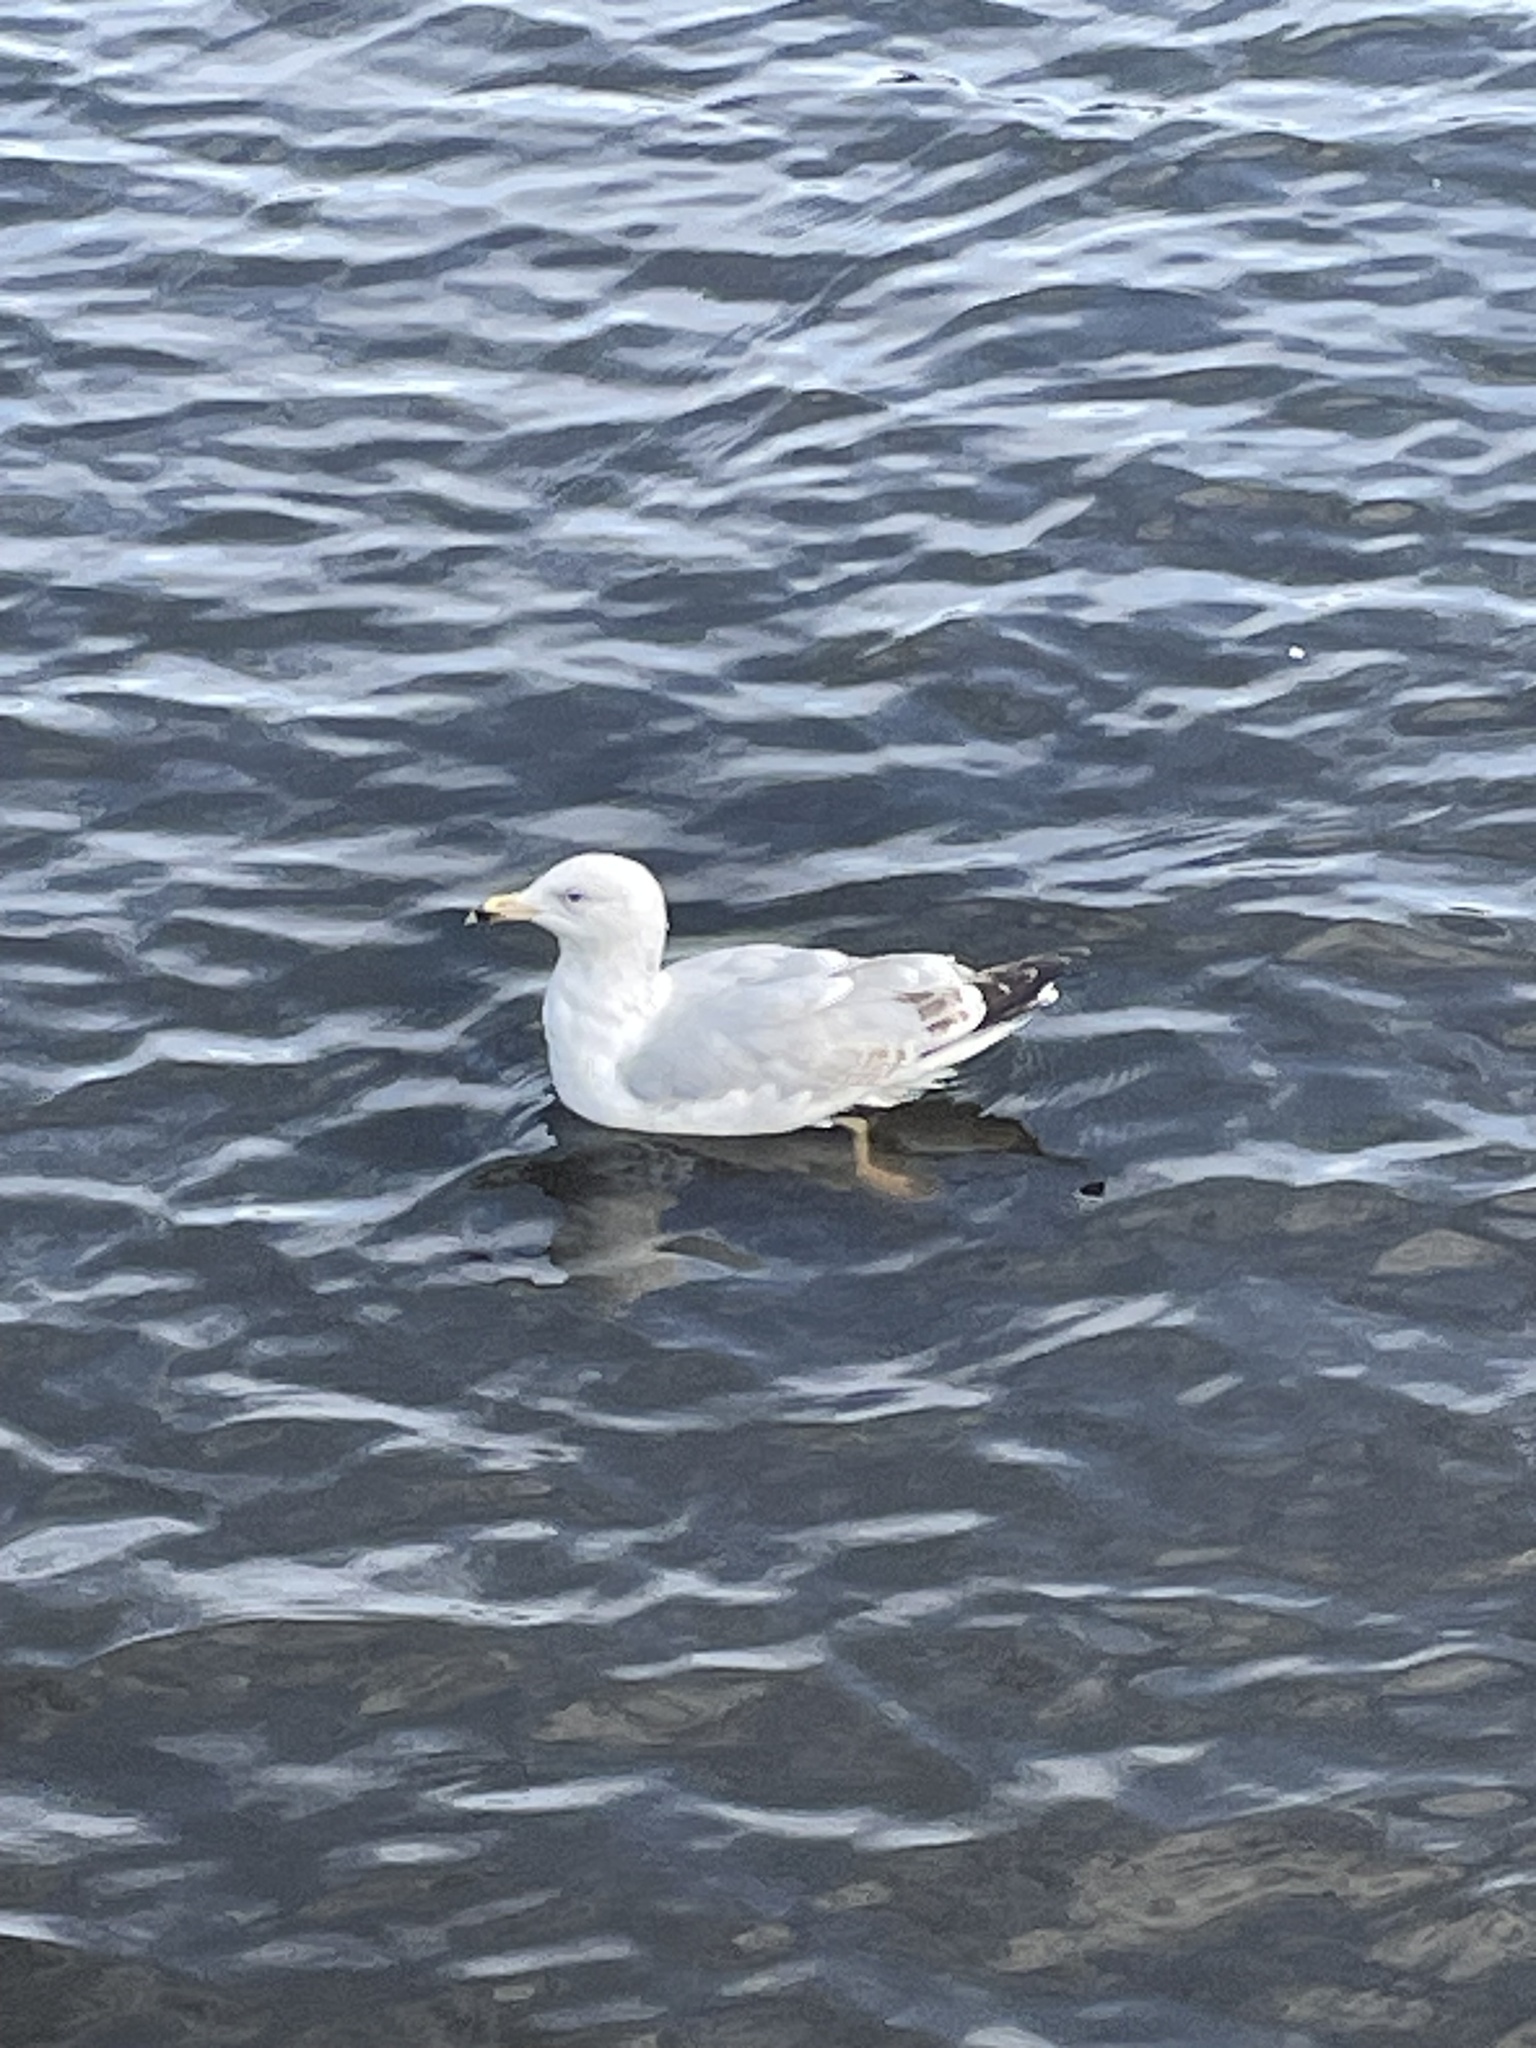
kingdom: Animalia
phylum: Chordata
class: Aves
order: Charadriiformes
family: Laridae
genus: Larus
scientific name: Larus argentatus
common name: Herring gull
